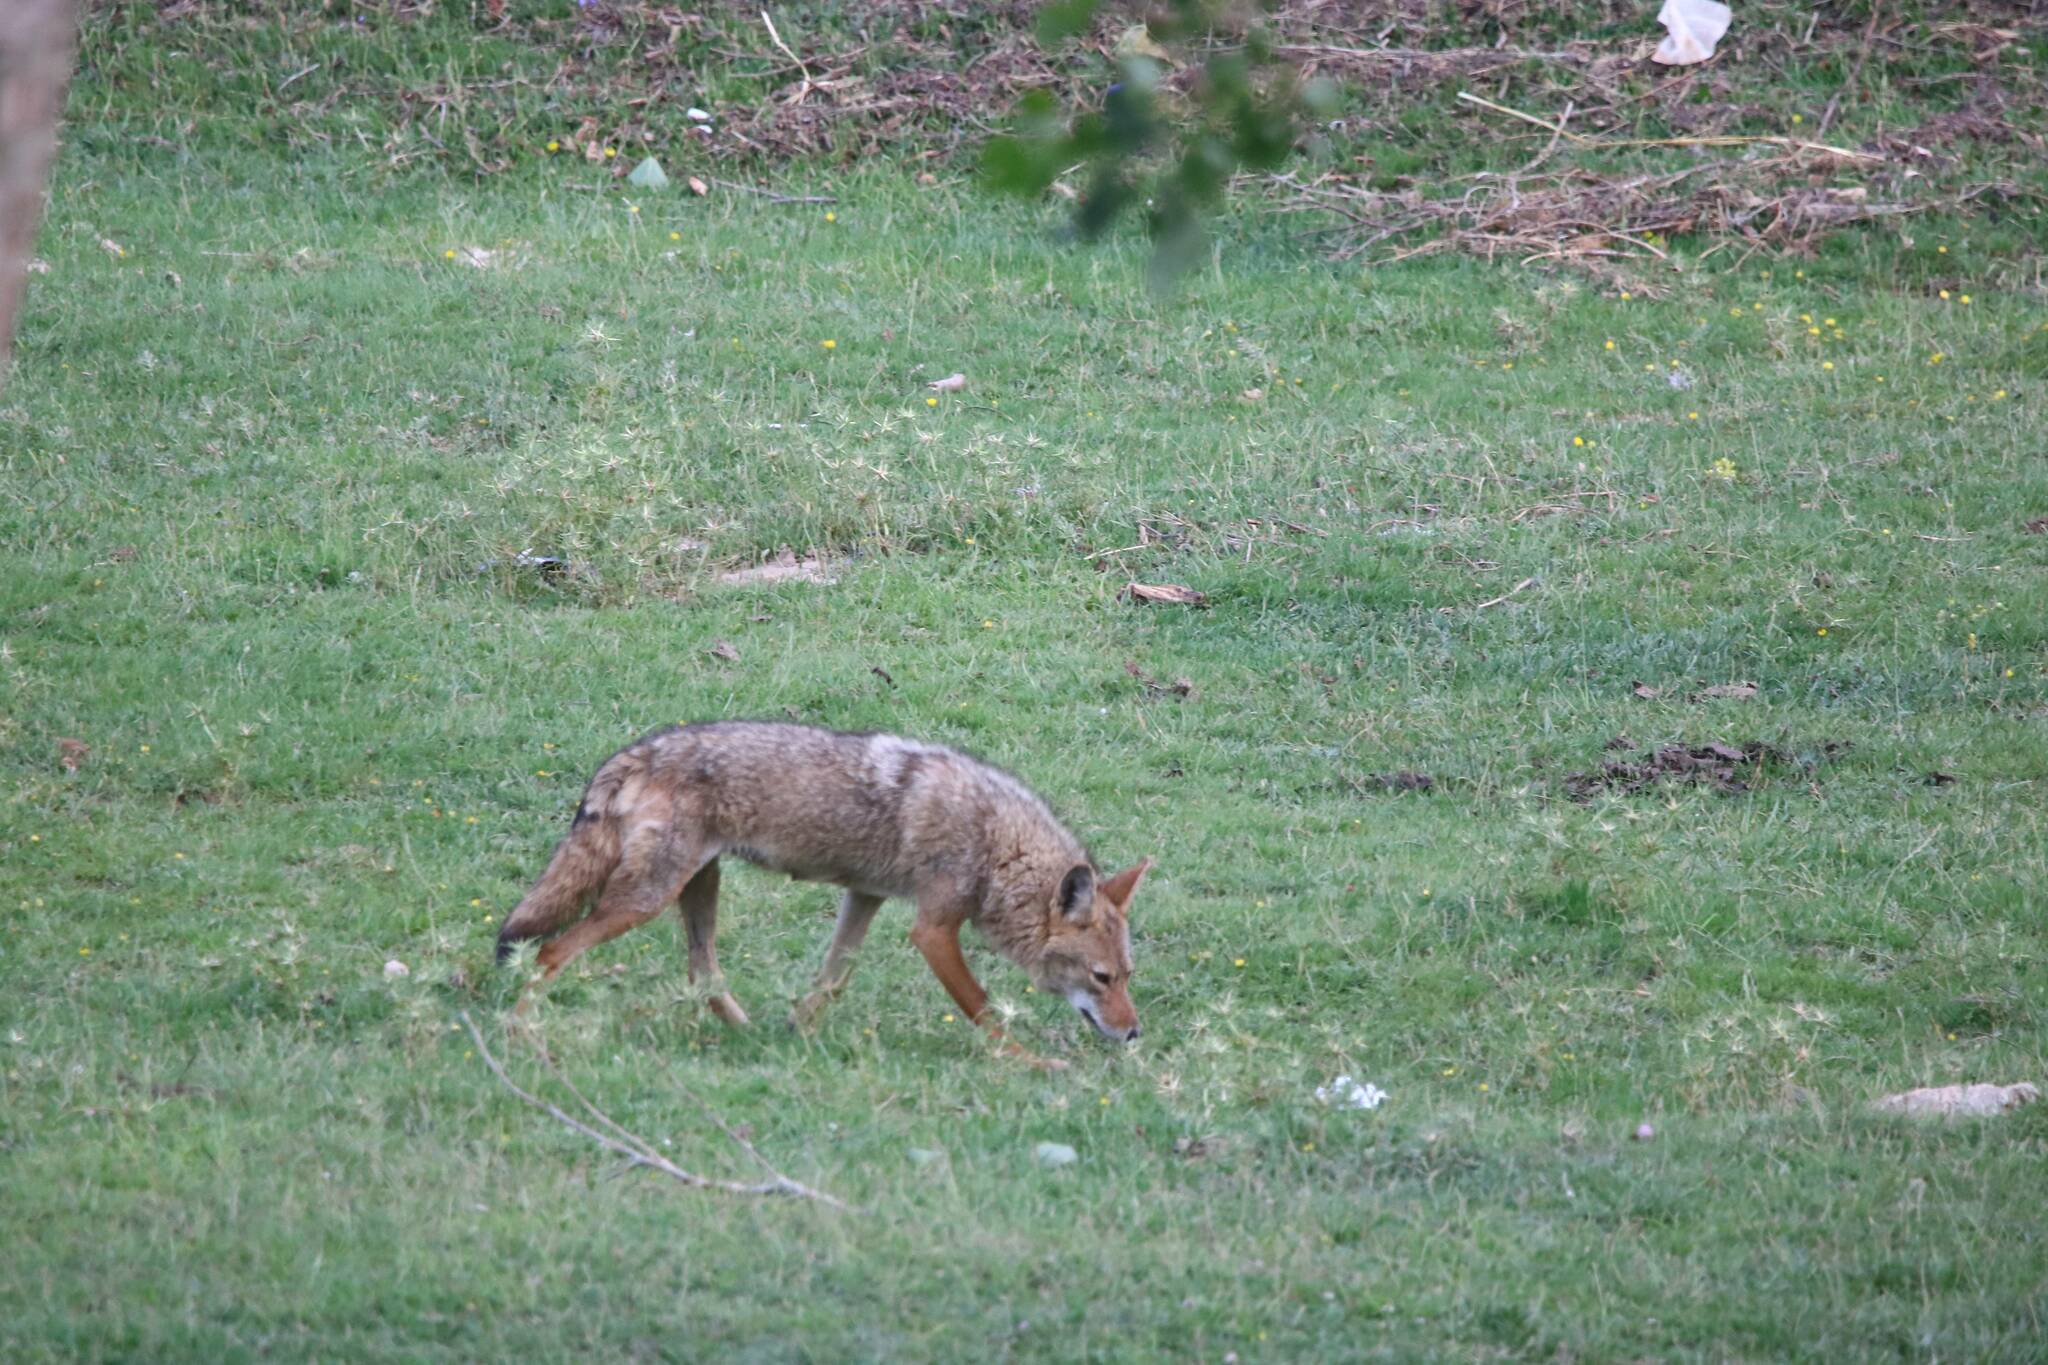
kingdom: Animalia
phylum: Chordata
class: Mammalia
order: Carnivora
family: Canidae
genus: Canis
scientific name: Canis lupaster
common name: African golden wolf
